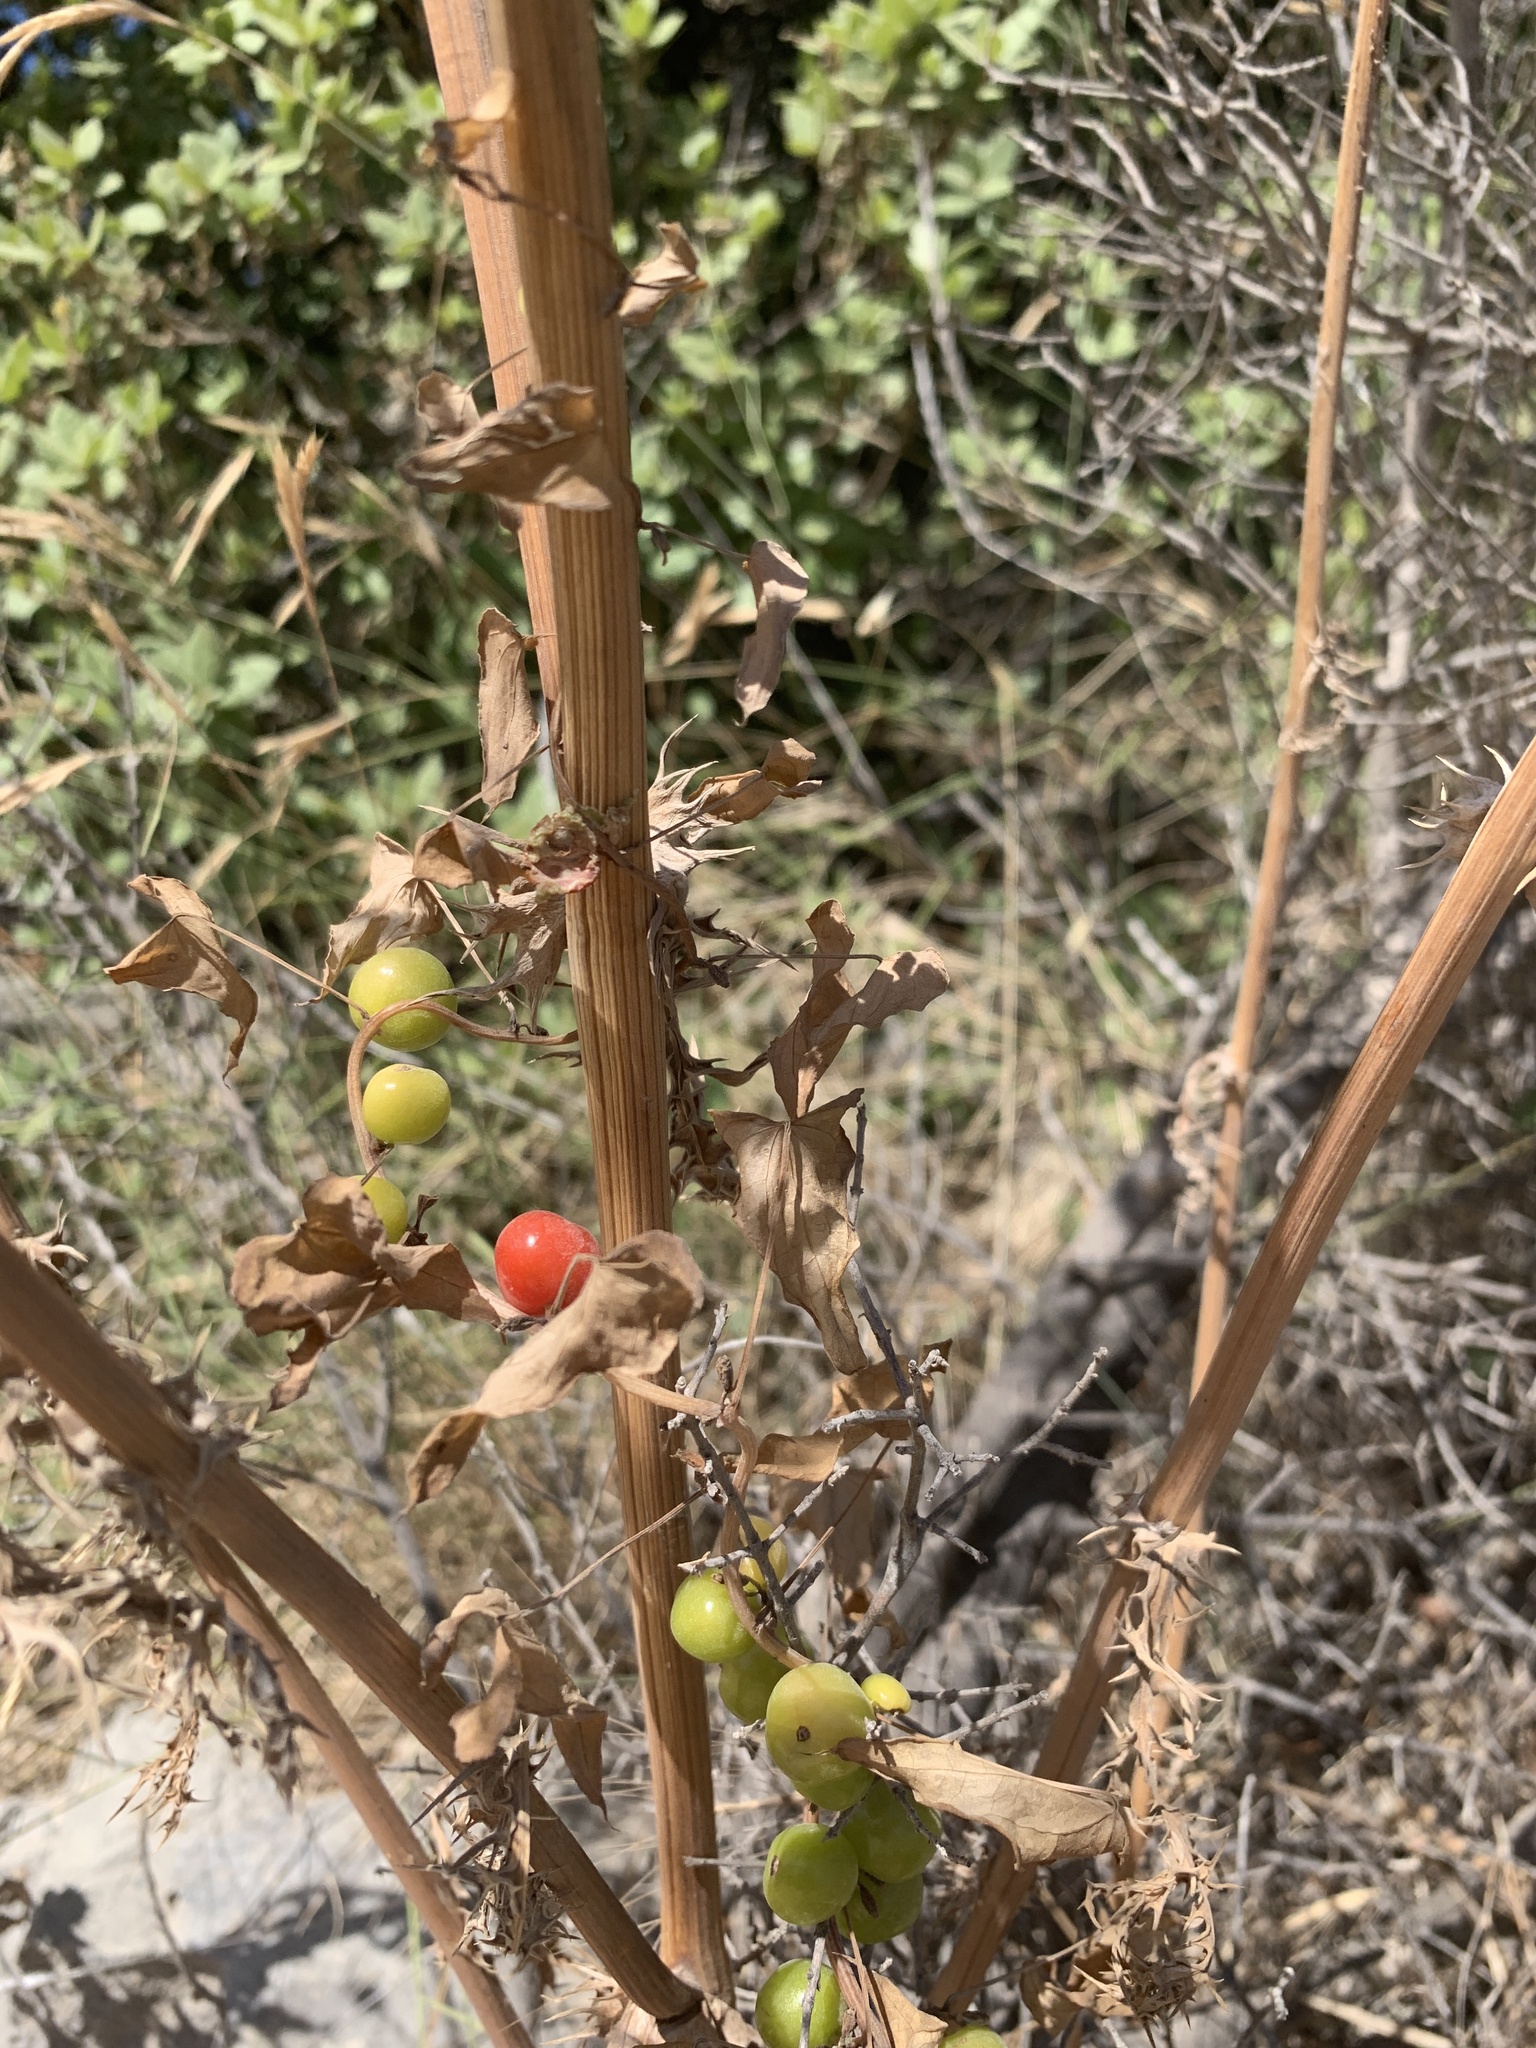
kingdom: Plantae
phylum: Tracheophyta
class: Liliopsida
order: Dioscoreales
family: Dioscoreaceae
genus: Dioscorea
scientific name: Dioscorea communis
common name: Black-bindweed
